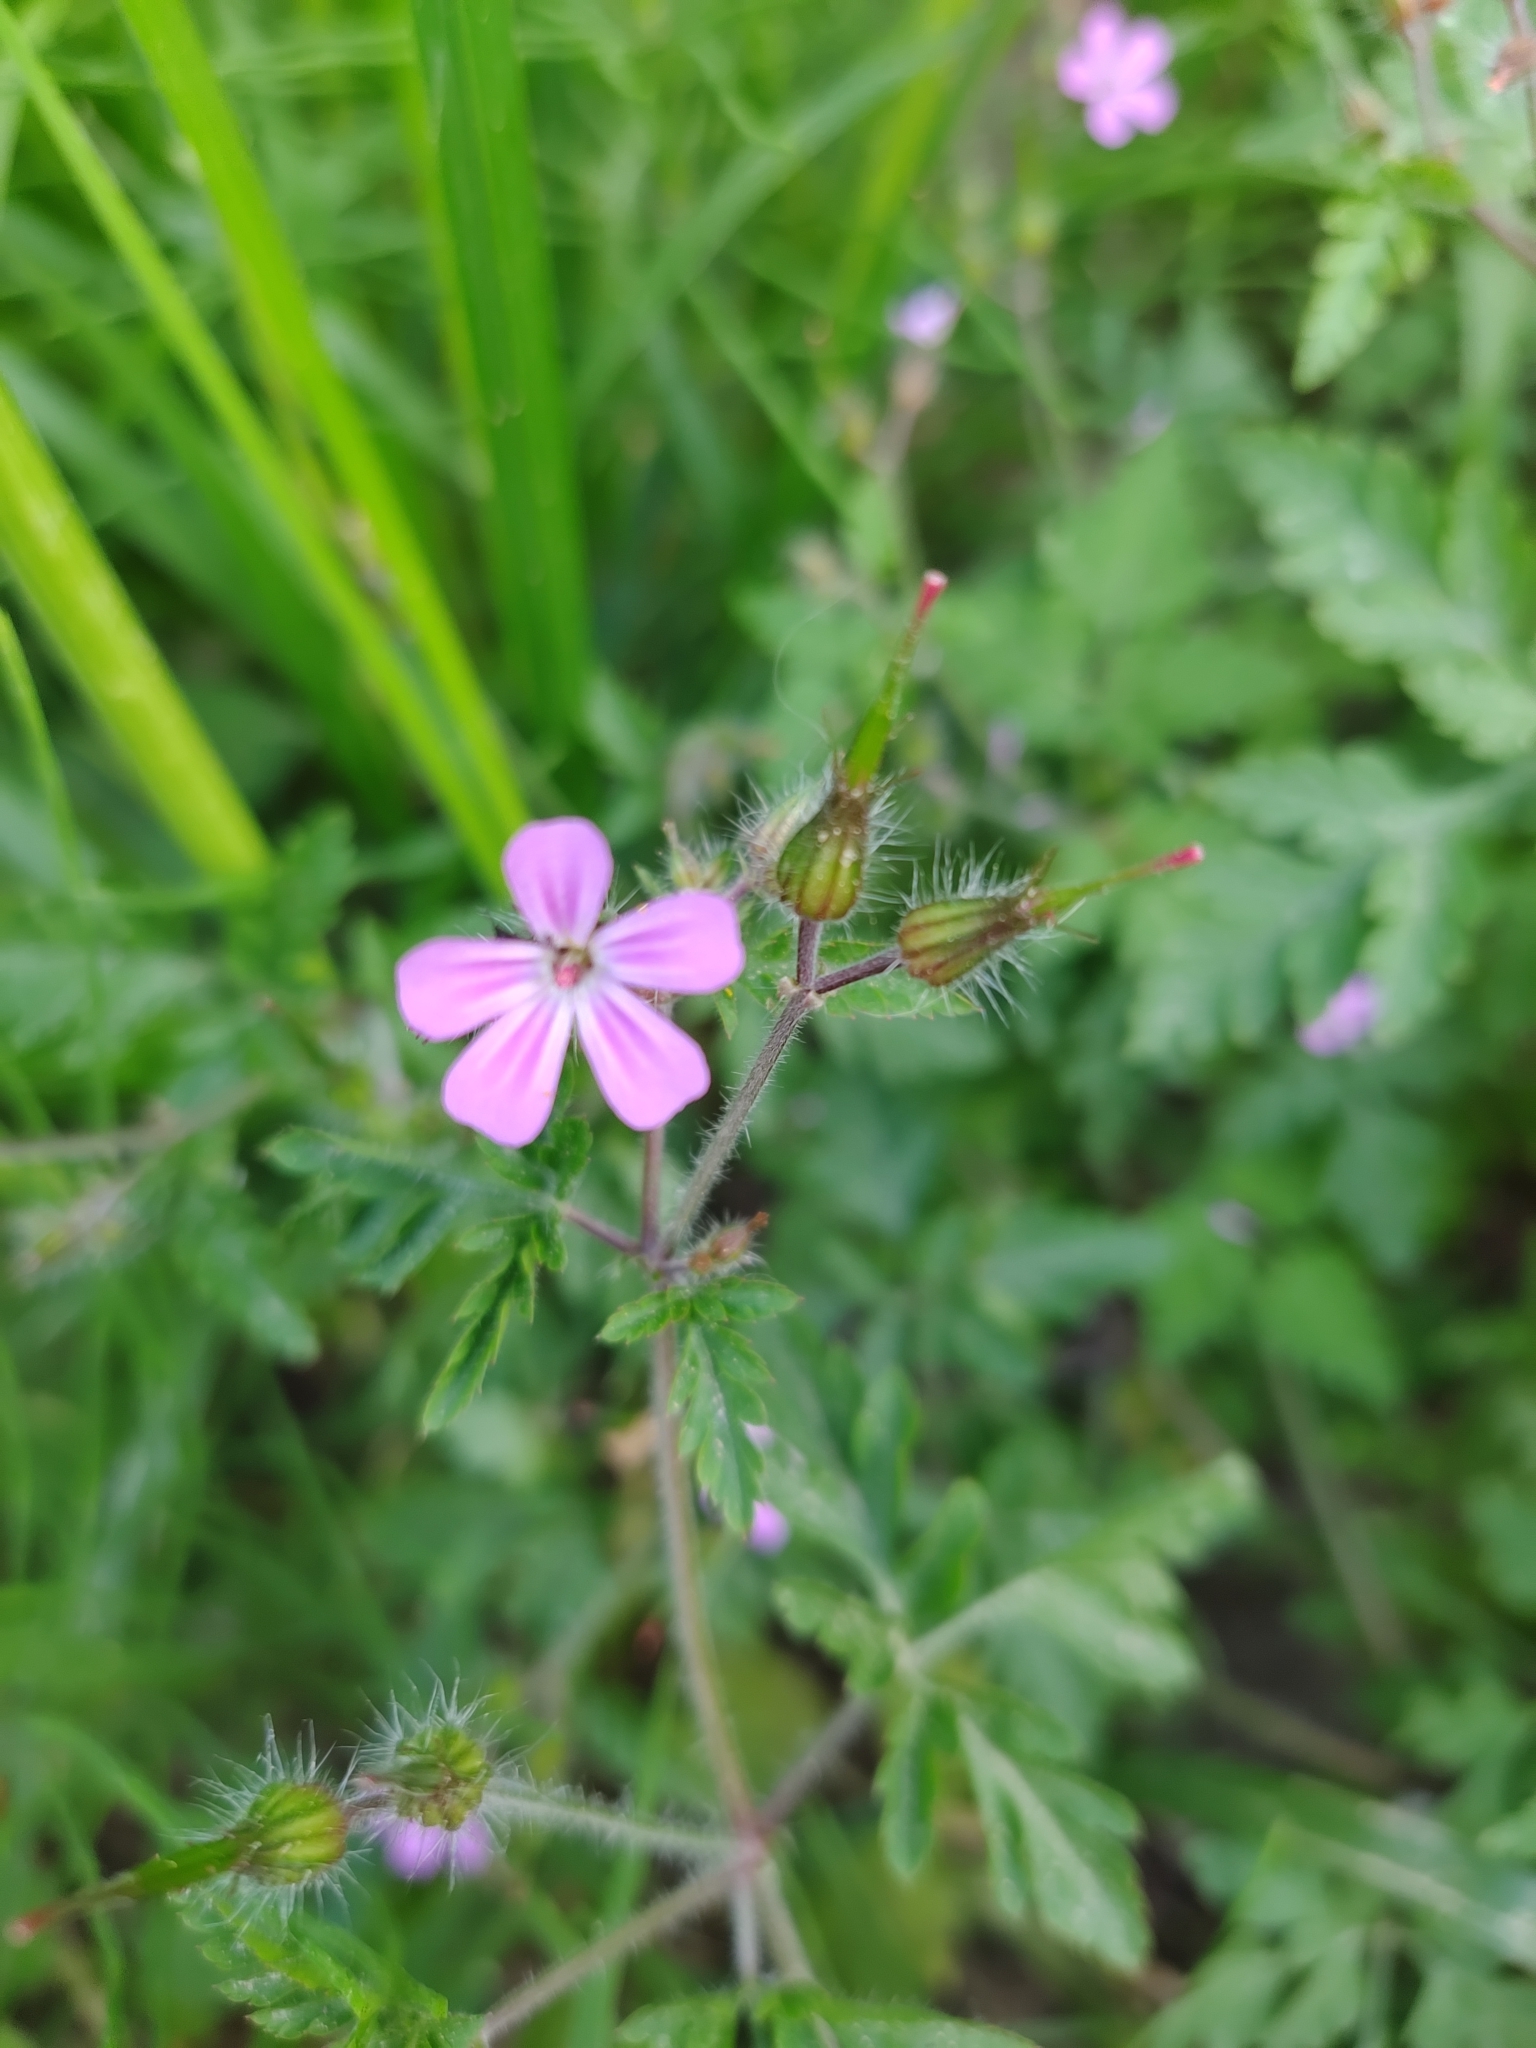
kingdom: Plantae
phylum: Tracheophyta
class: Magnoliopsida
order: Geraniales
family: Geraniaceae
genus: Geranium
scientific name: Geranium robertianum
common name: Herb-robert
